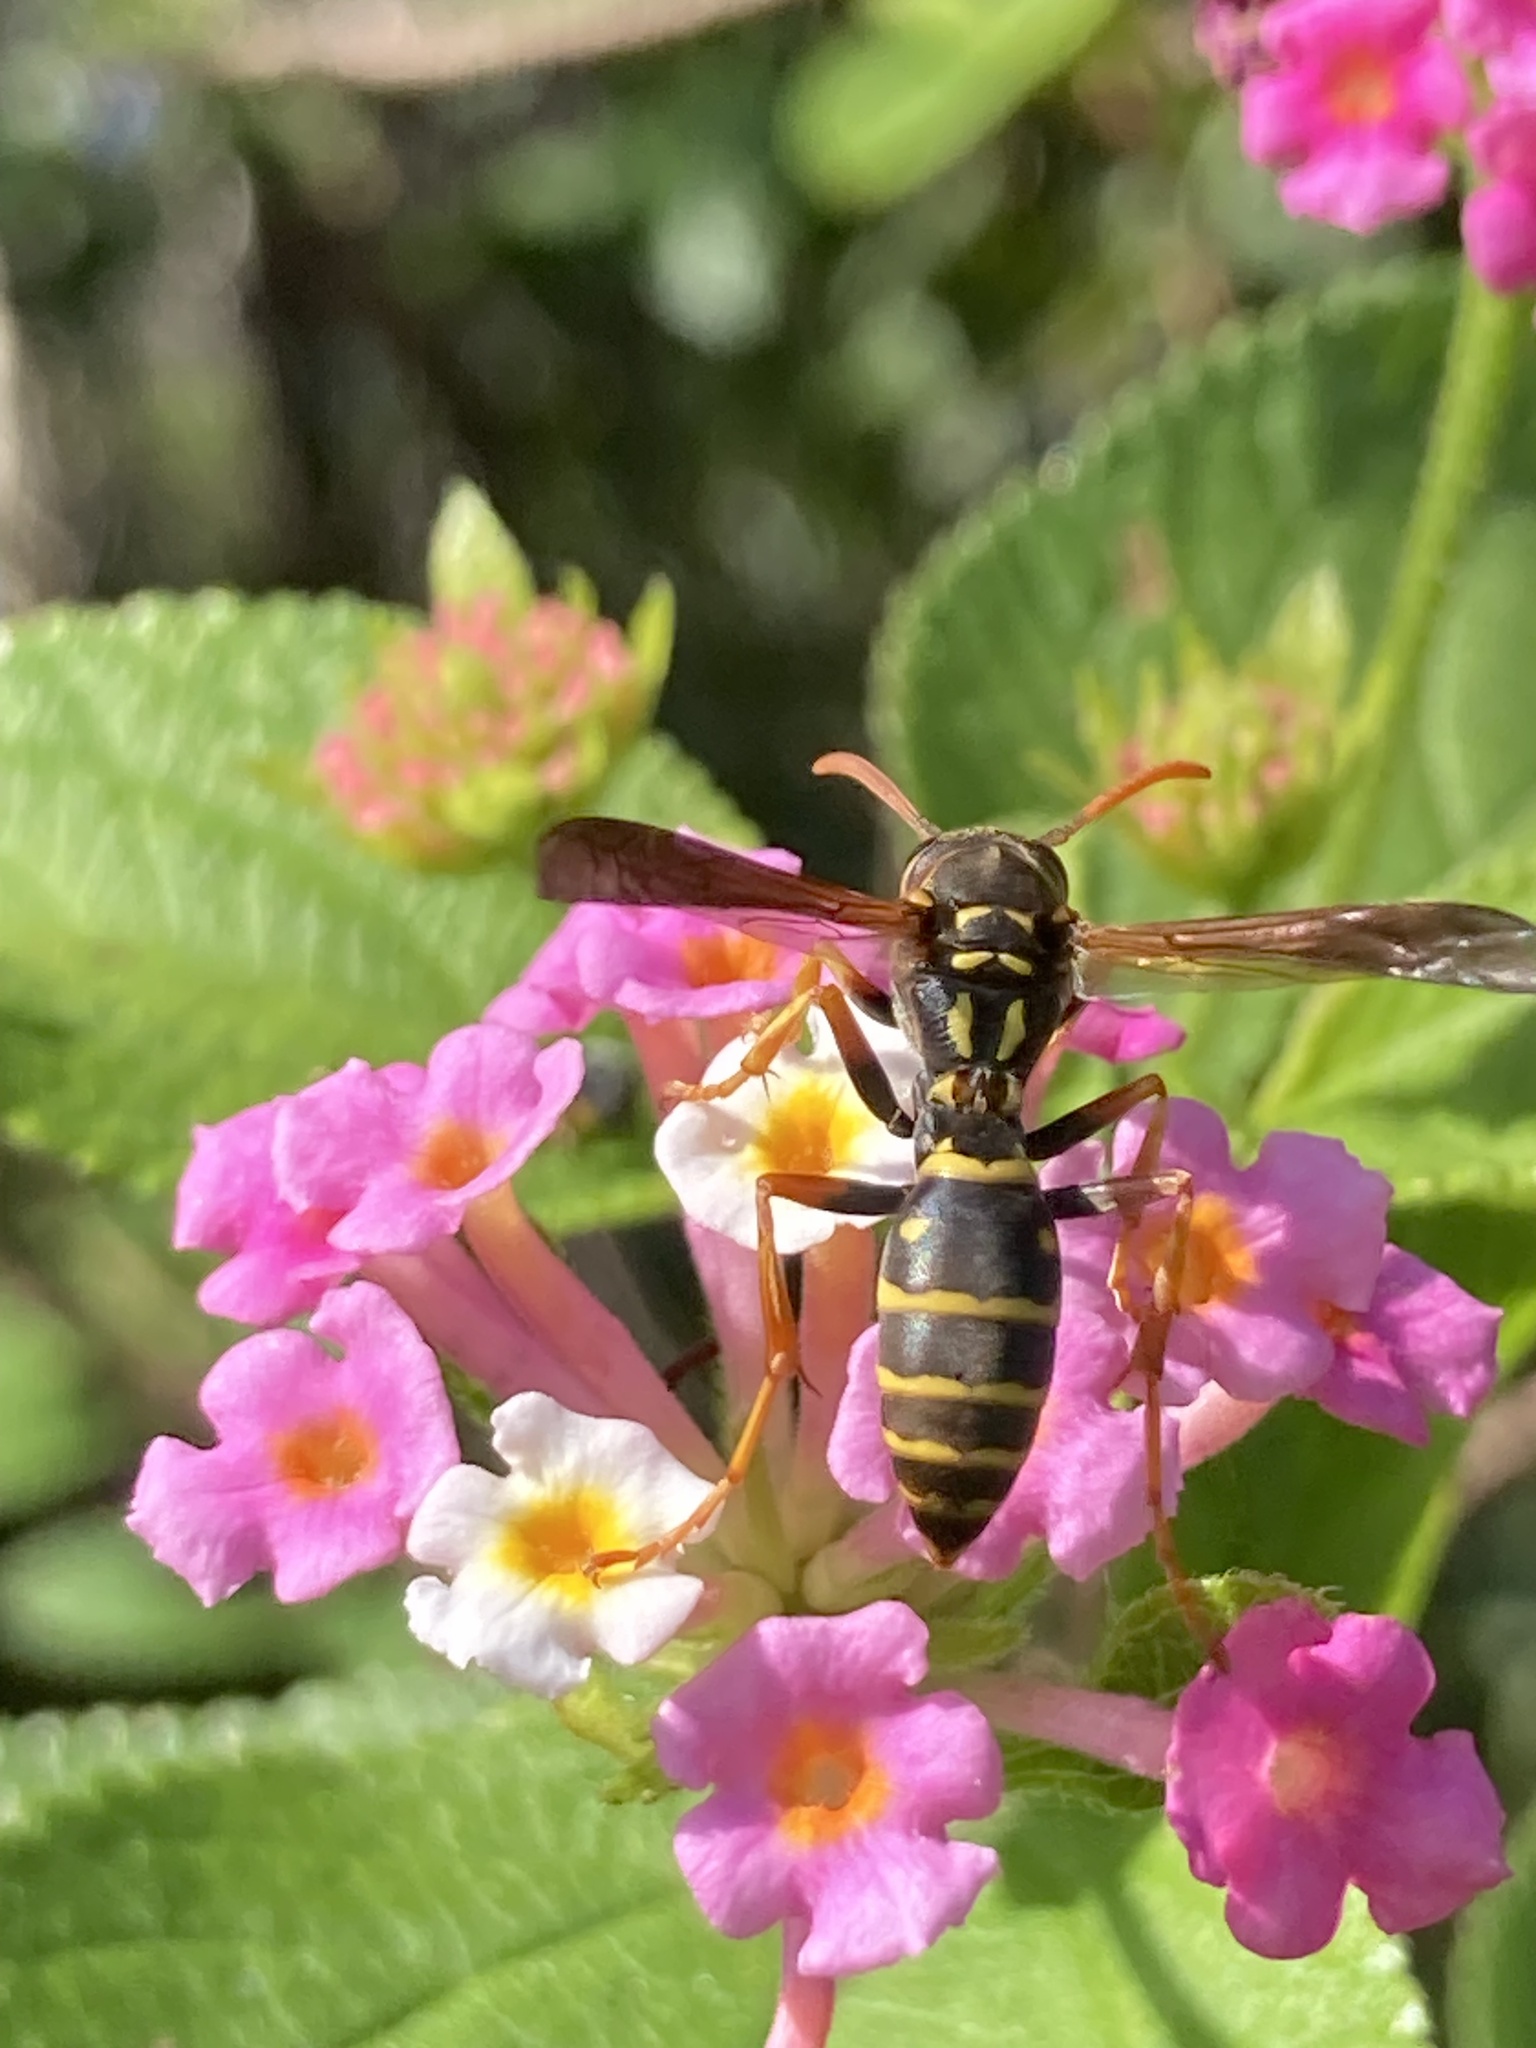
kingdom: Animalia
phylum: Arthropoda
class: Insecta
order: Hymenoptera
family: Eumenidae
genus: Polistes
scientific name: Polistes chinensis
